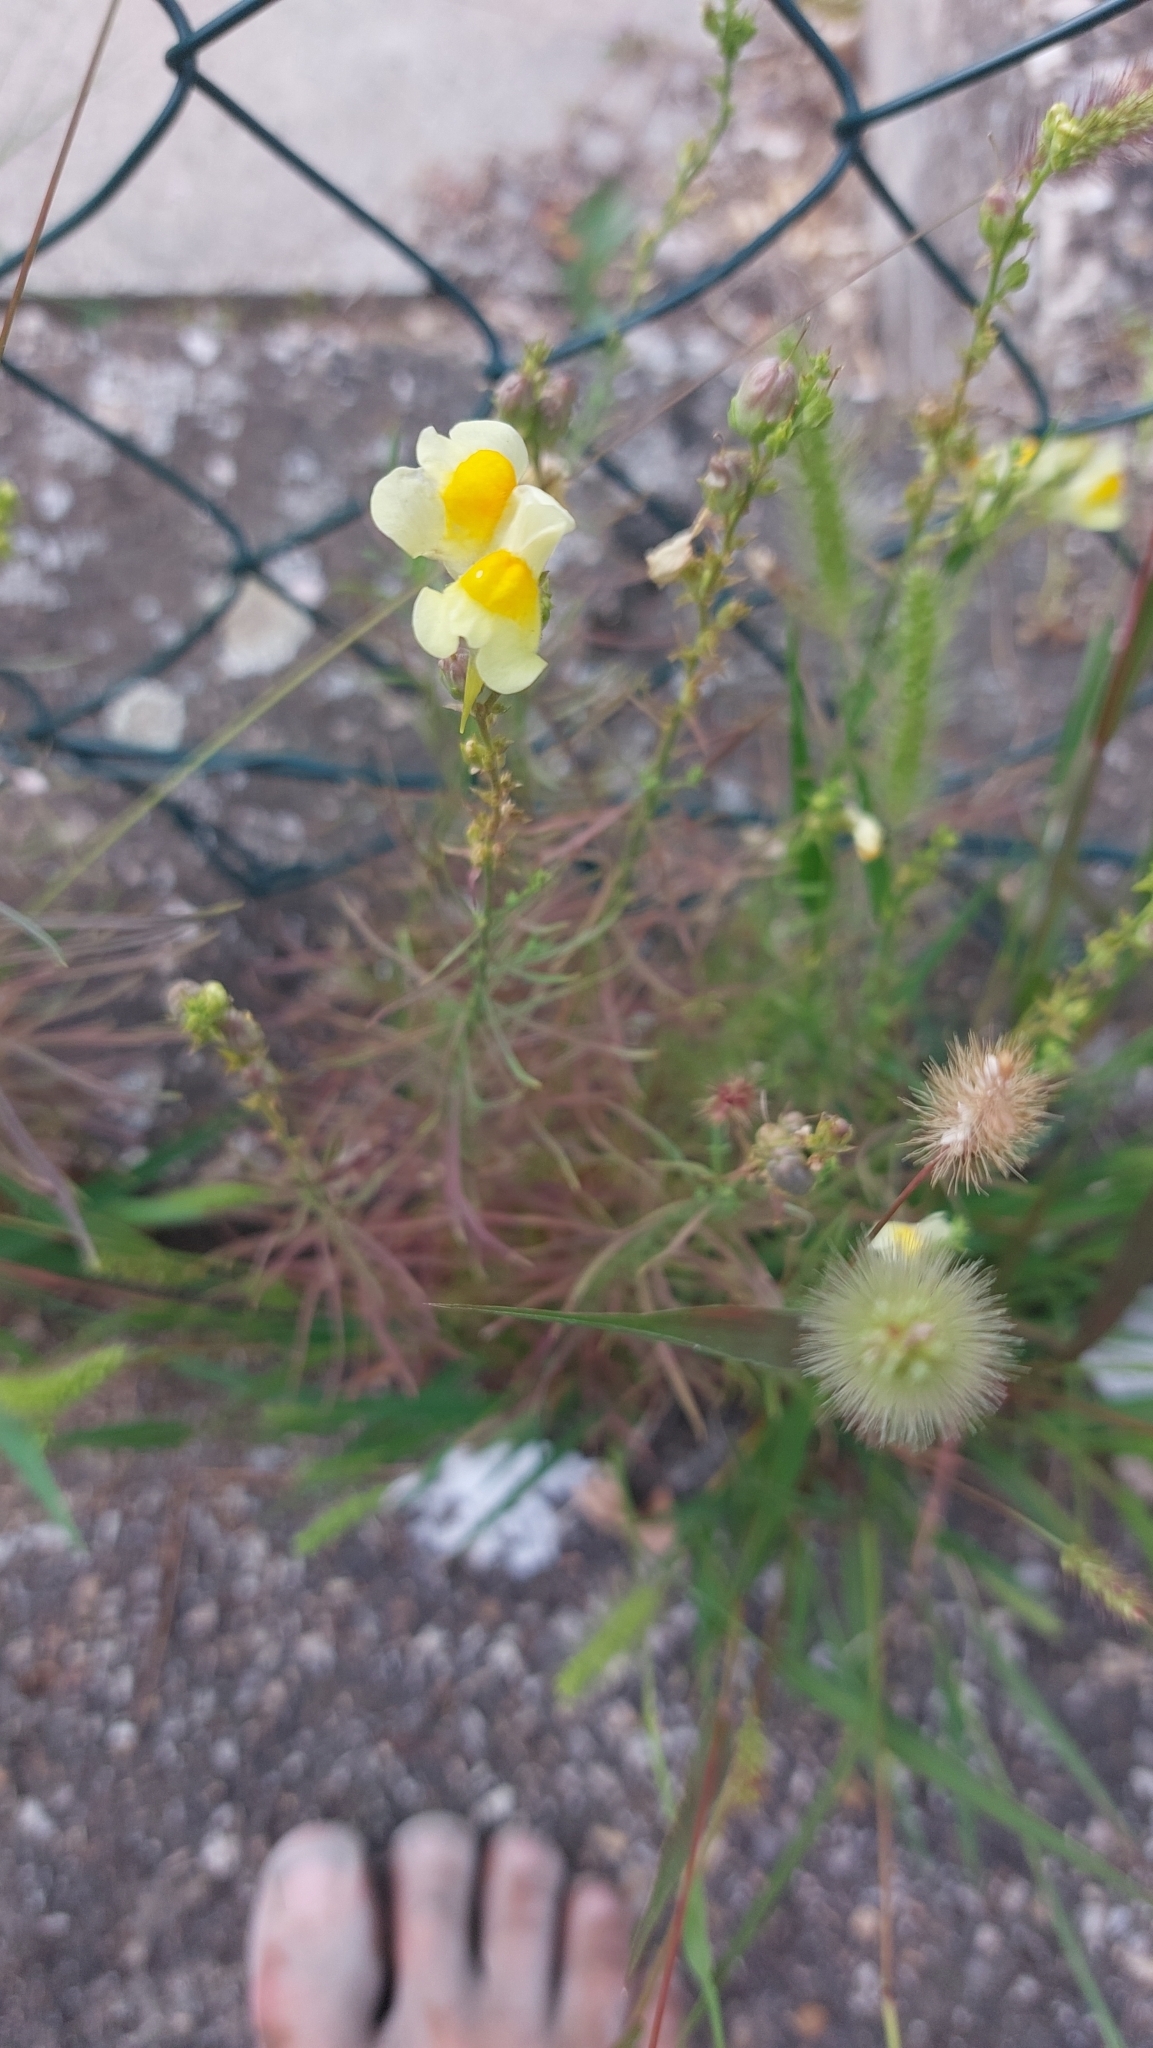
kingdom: Plantae
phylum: Tracheophyta
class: Magnoliopsida
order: Lamiales
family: Plantaginaceae
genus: Linaria
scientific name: Linaria vulgaris
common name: Butter and eggs
